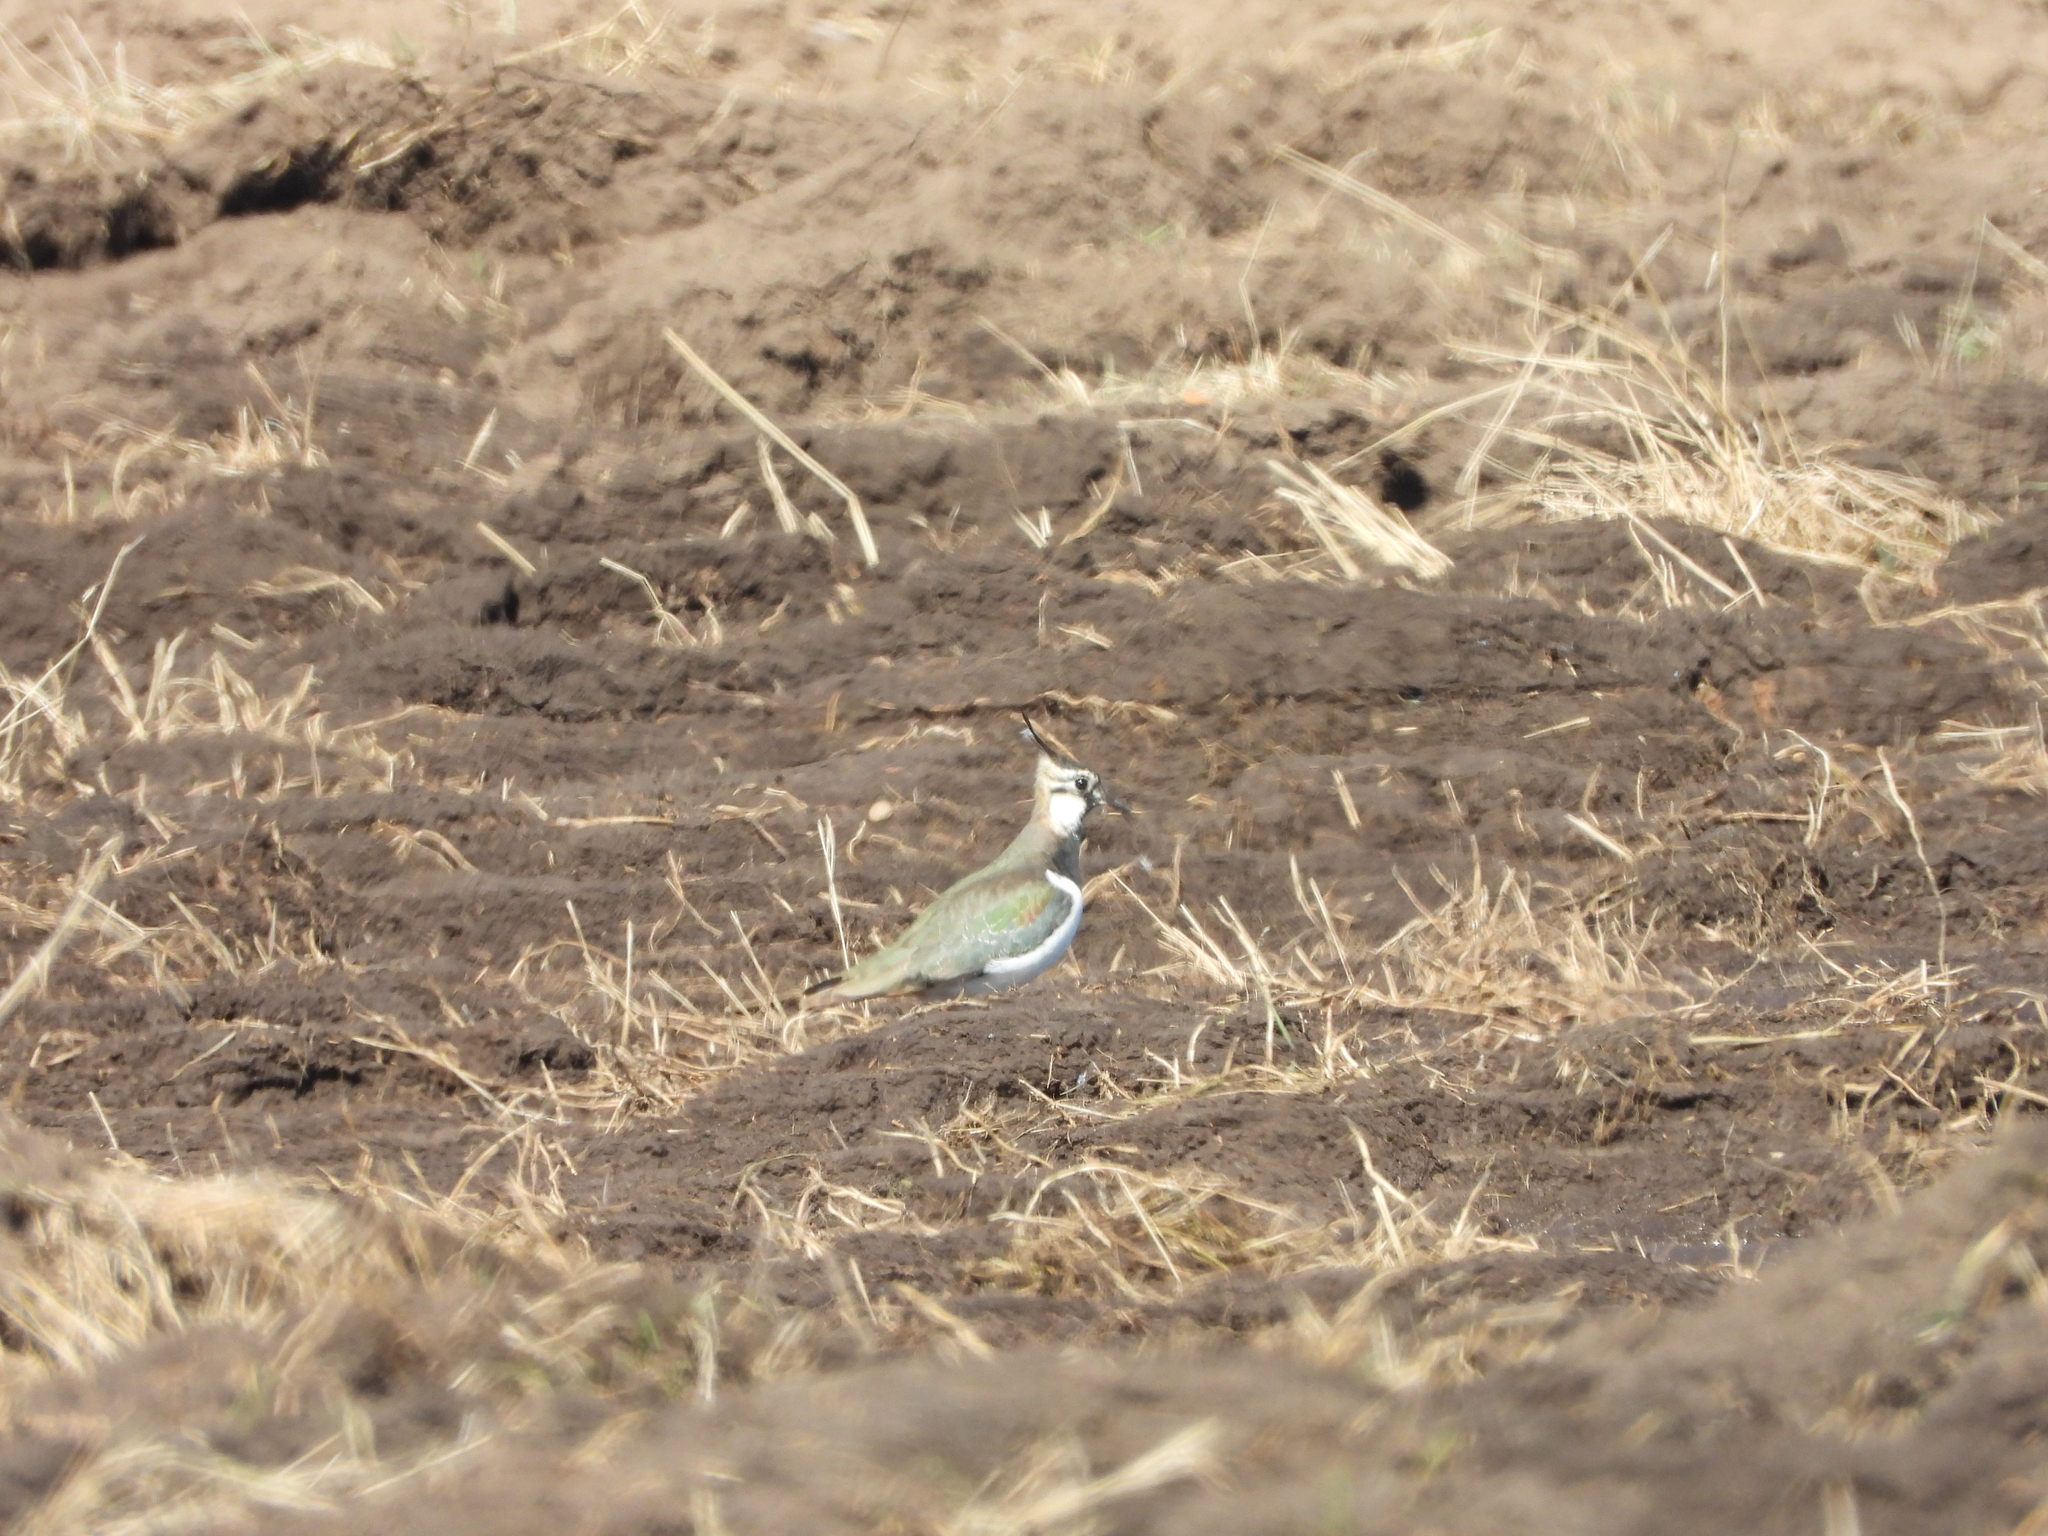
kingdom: Animalia
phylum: Chordata
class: Aves
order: Charadriiformes
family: Charadriidae
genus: Vanellus
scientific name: Vanellus vanellus
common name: Northern lapwing
